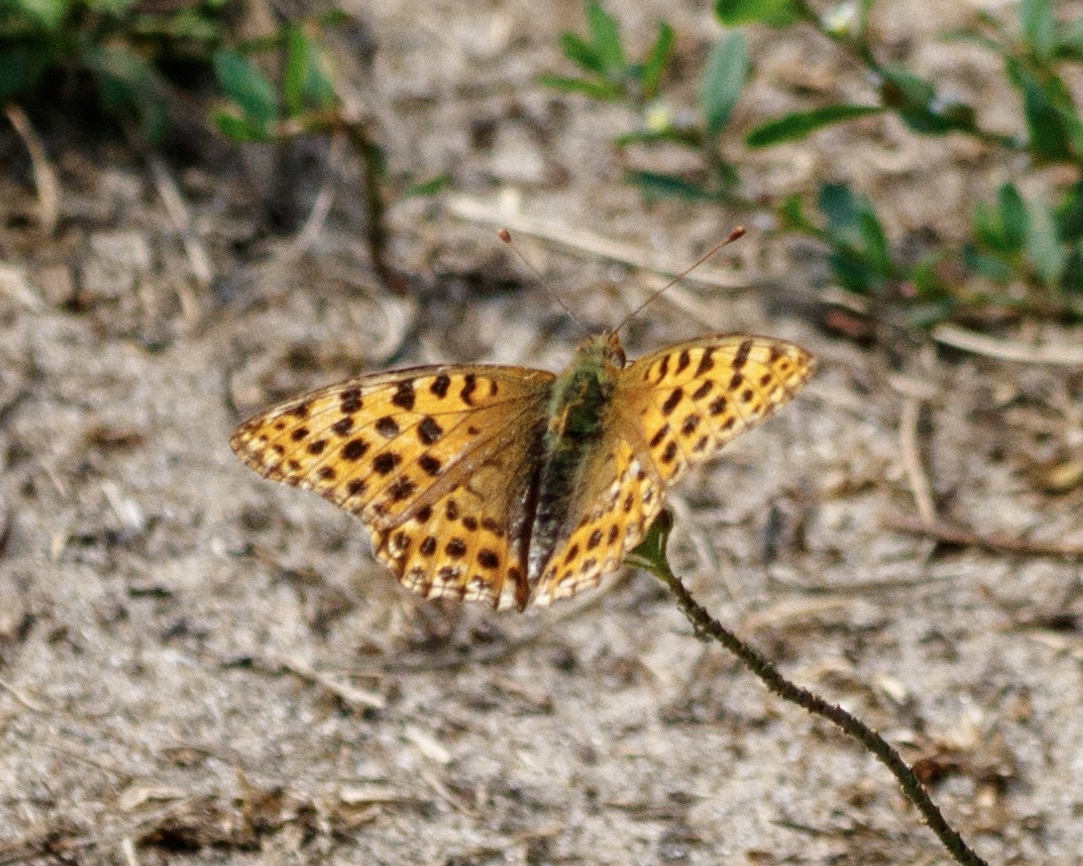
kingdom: Animalia
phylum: Arthropoda
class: Insecta
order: Lepidoptera
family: Nymphalidae
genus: Issoria
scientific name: Issoria lathonia
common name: Queen of spain fritillary
